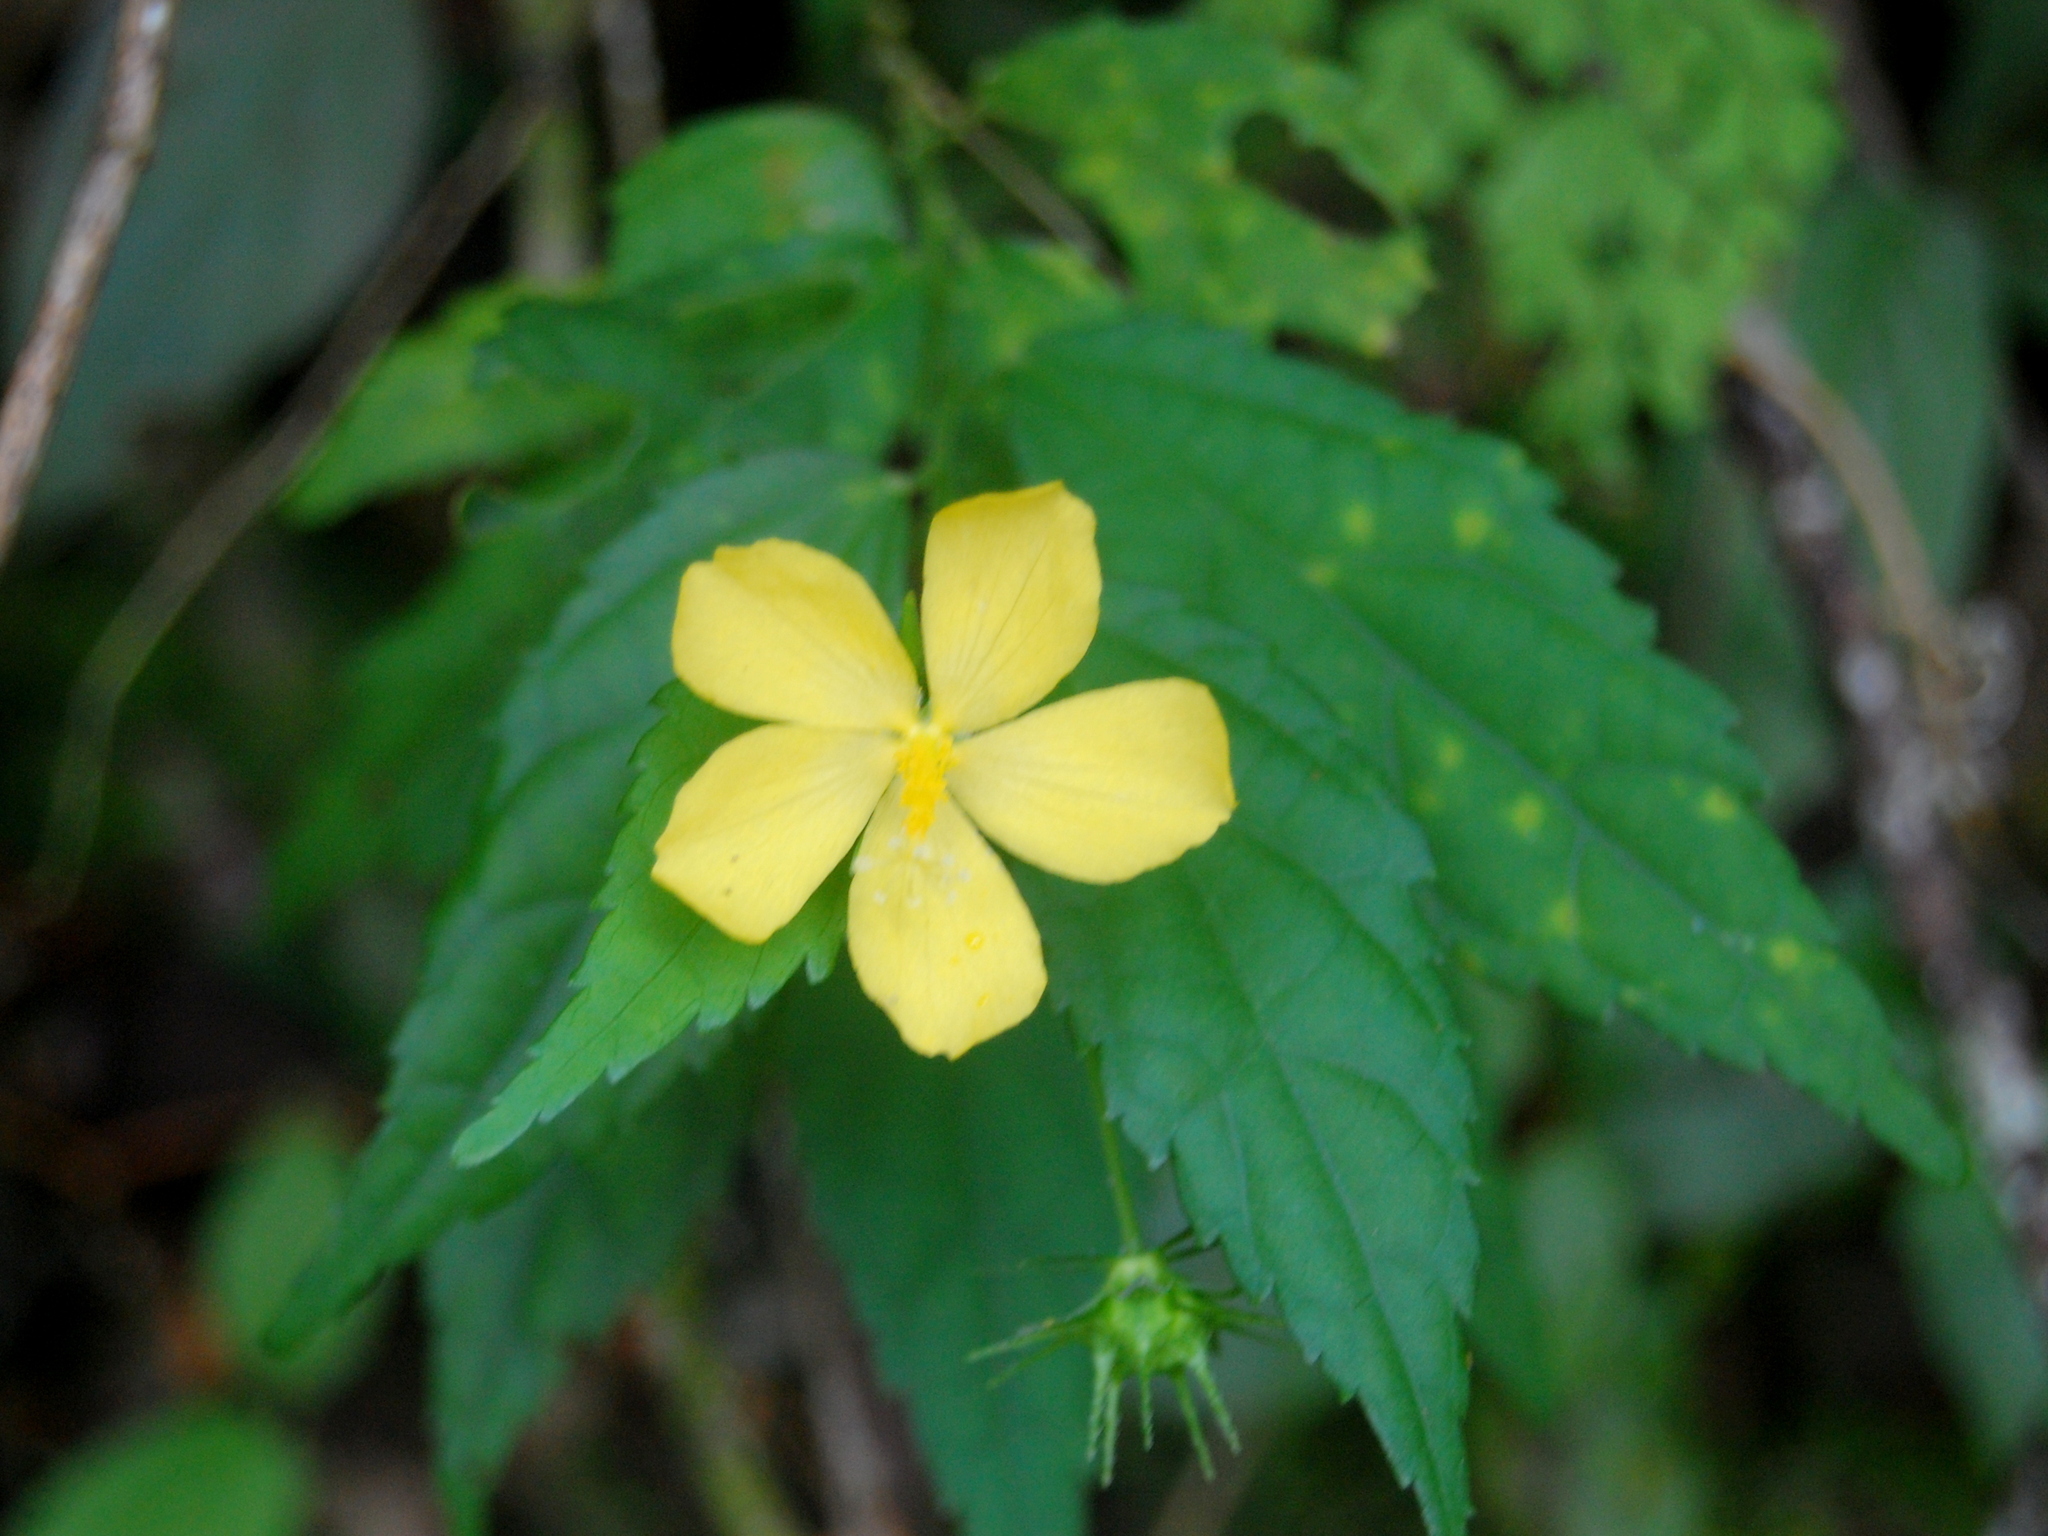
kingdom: Plantae
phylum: Tracheophyta
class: Magnoliopsida
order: Malvales
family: Malvaceae
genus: Pavonia
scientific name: Pavonia sepium
